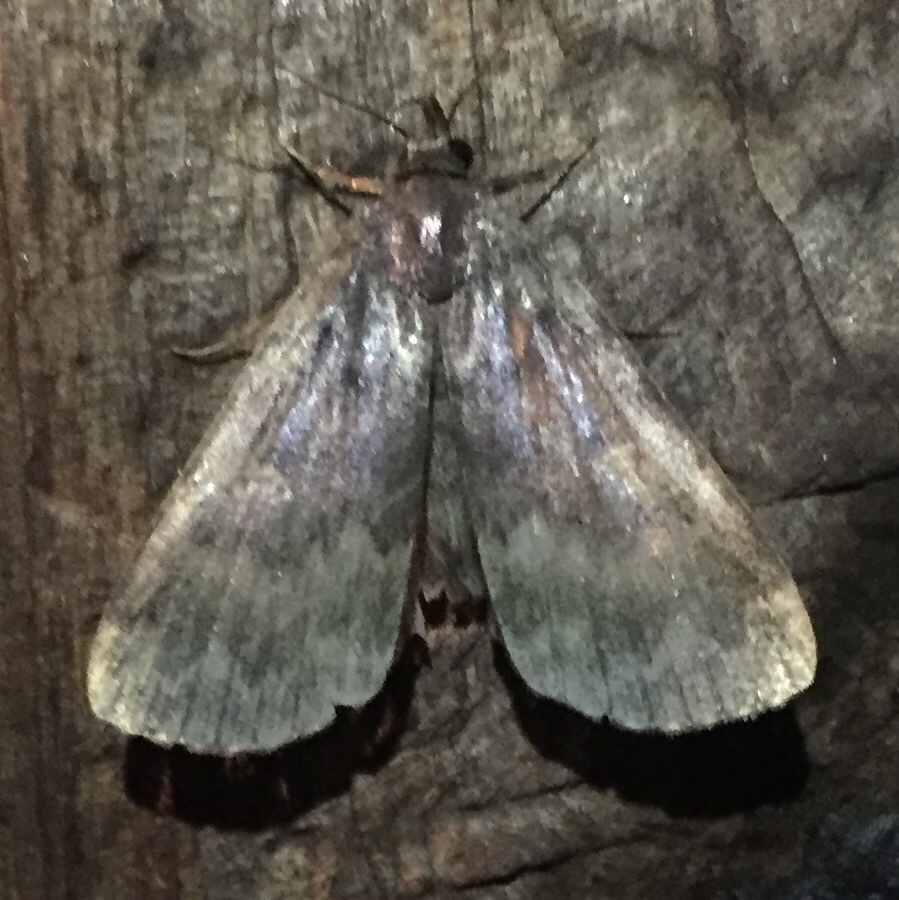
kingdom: Animalia
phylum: Arthropoda
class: Insecta
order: Lepidoptera
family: Erebidae
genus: Idia
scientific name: Idia lubricalis
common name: Twin-striped tabby
